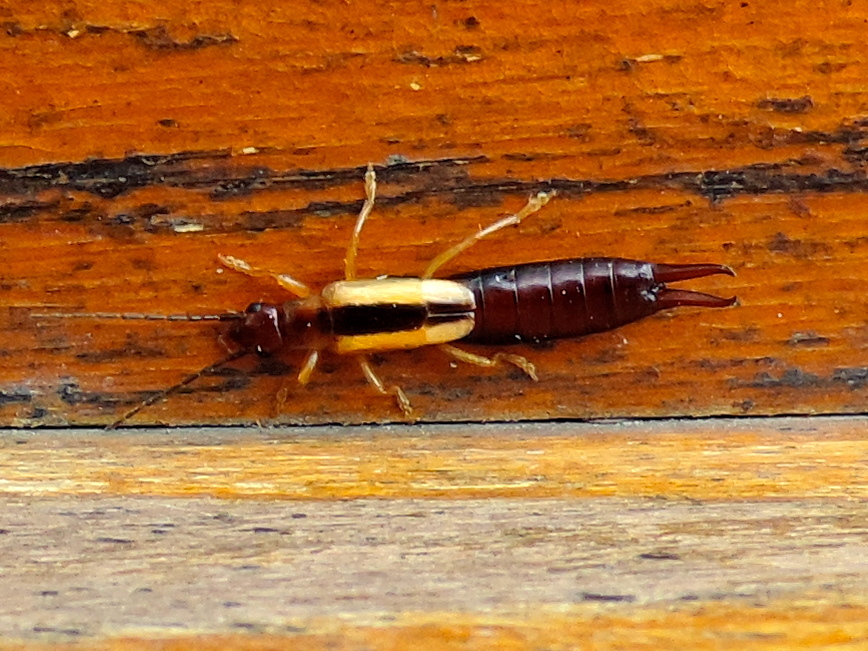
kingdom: Animalia
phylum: Arthropoda
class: Insecta
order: Dermaptera
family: Forficulidae
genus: Doru
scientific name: Doru taeniatum
